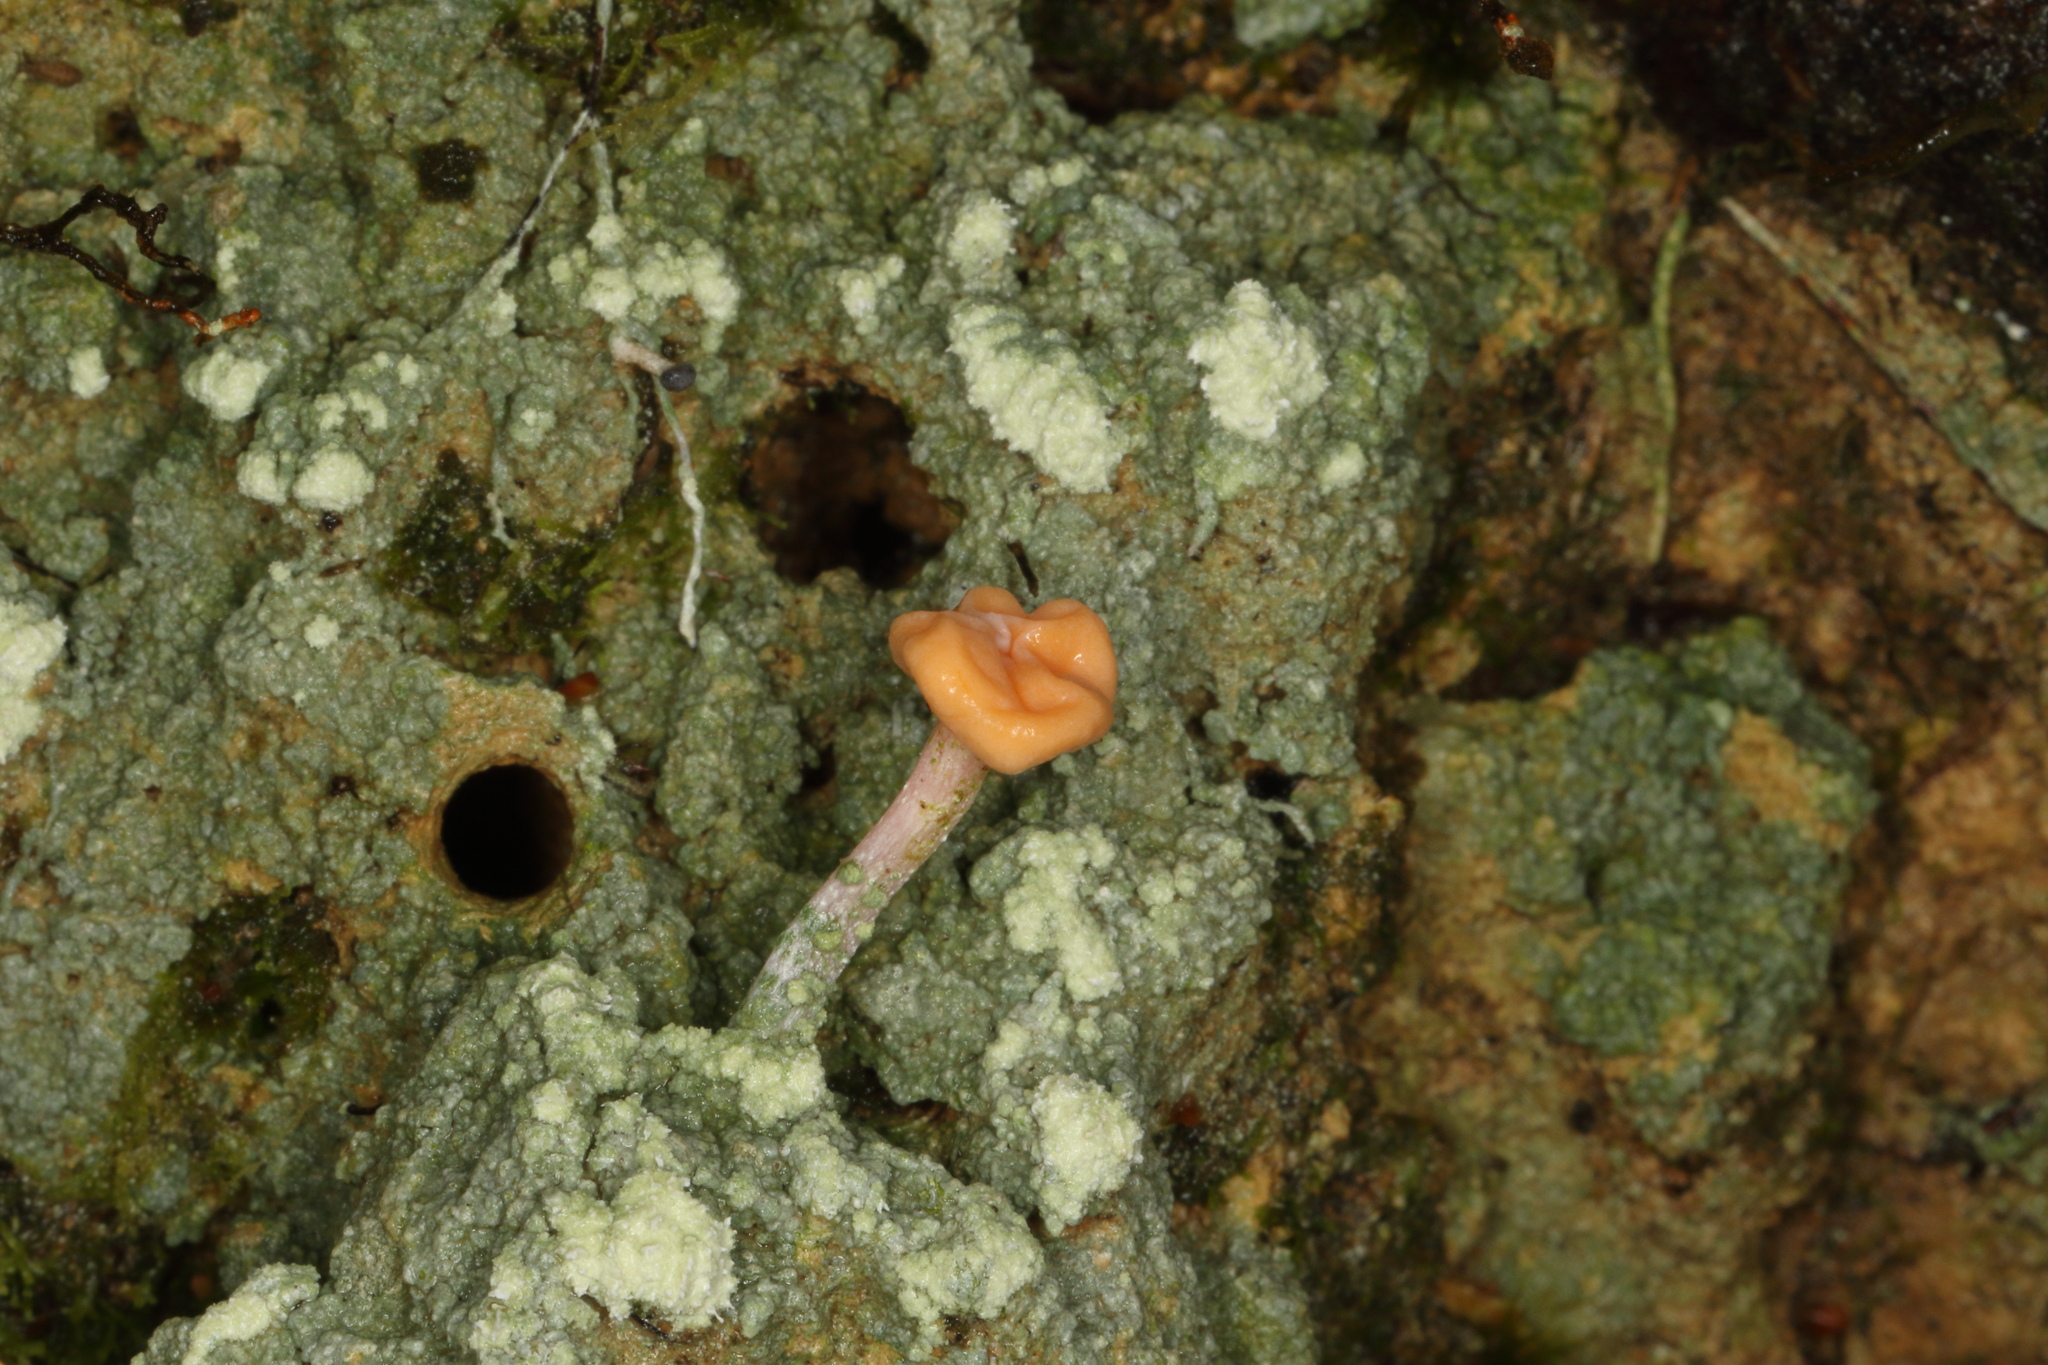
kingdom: Fungi
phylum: Ascomycota
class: Lecanoromycetes
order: Pertusariales
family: Icmadophilaceae
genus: Dibaeis
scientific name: Dibaeis arcuata
